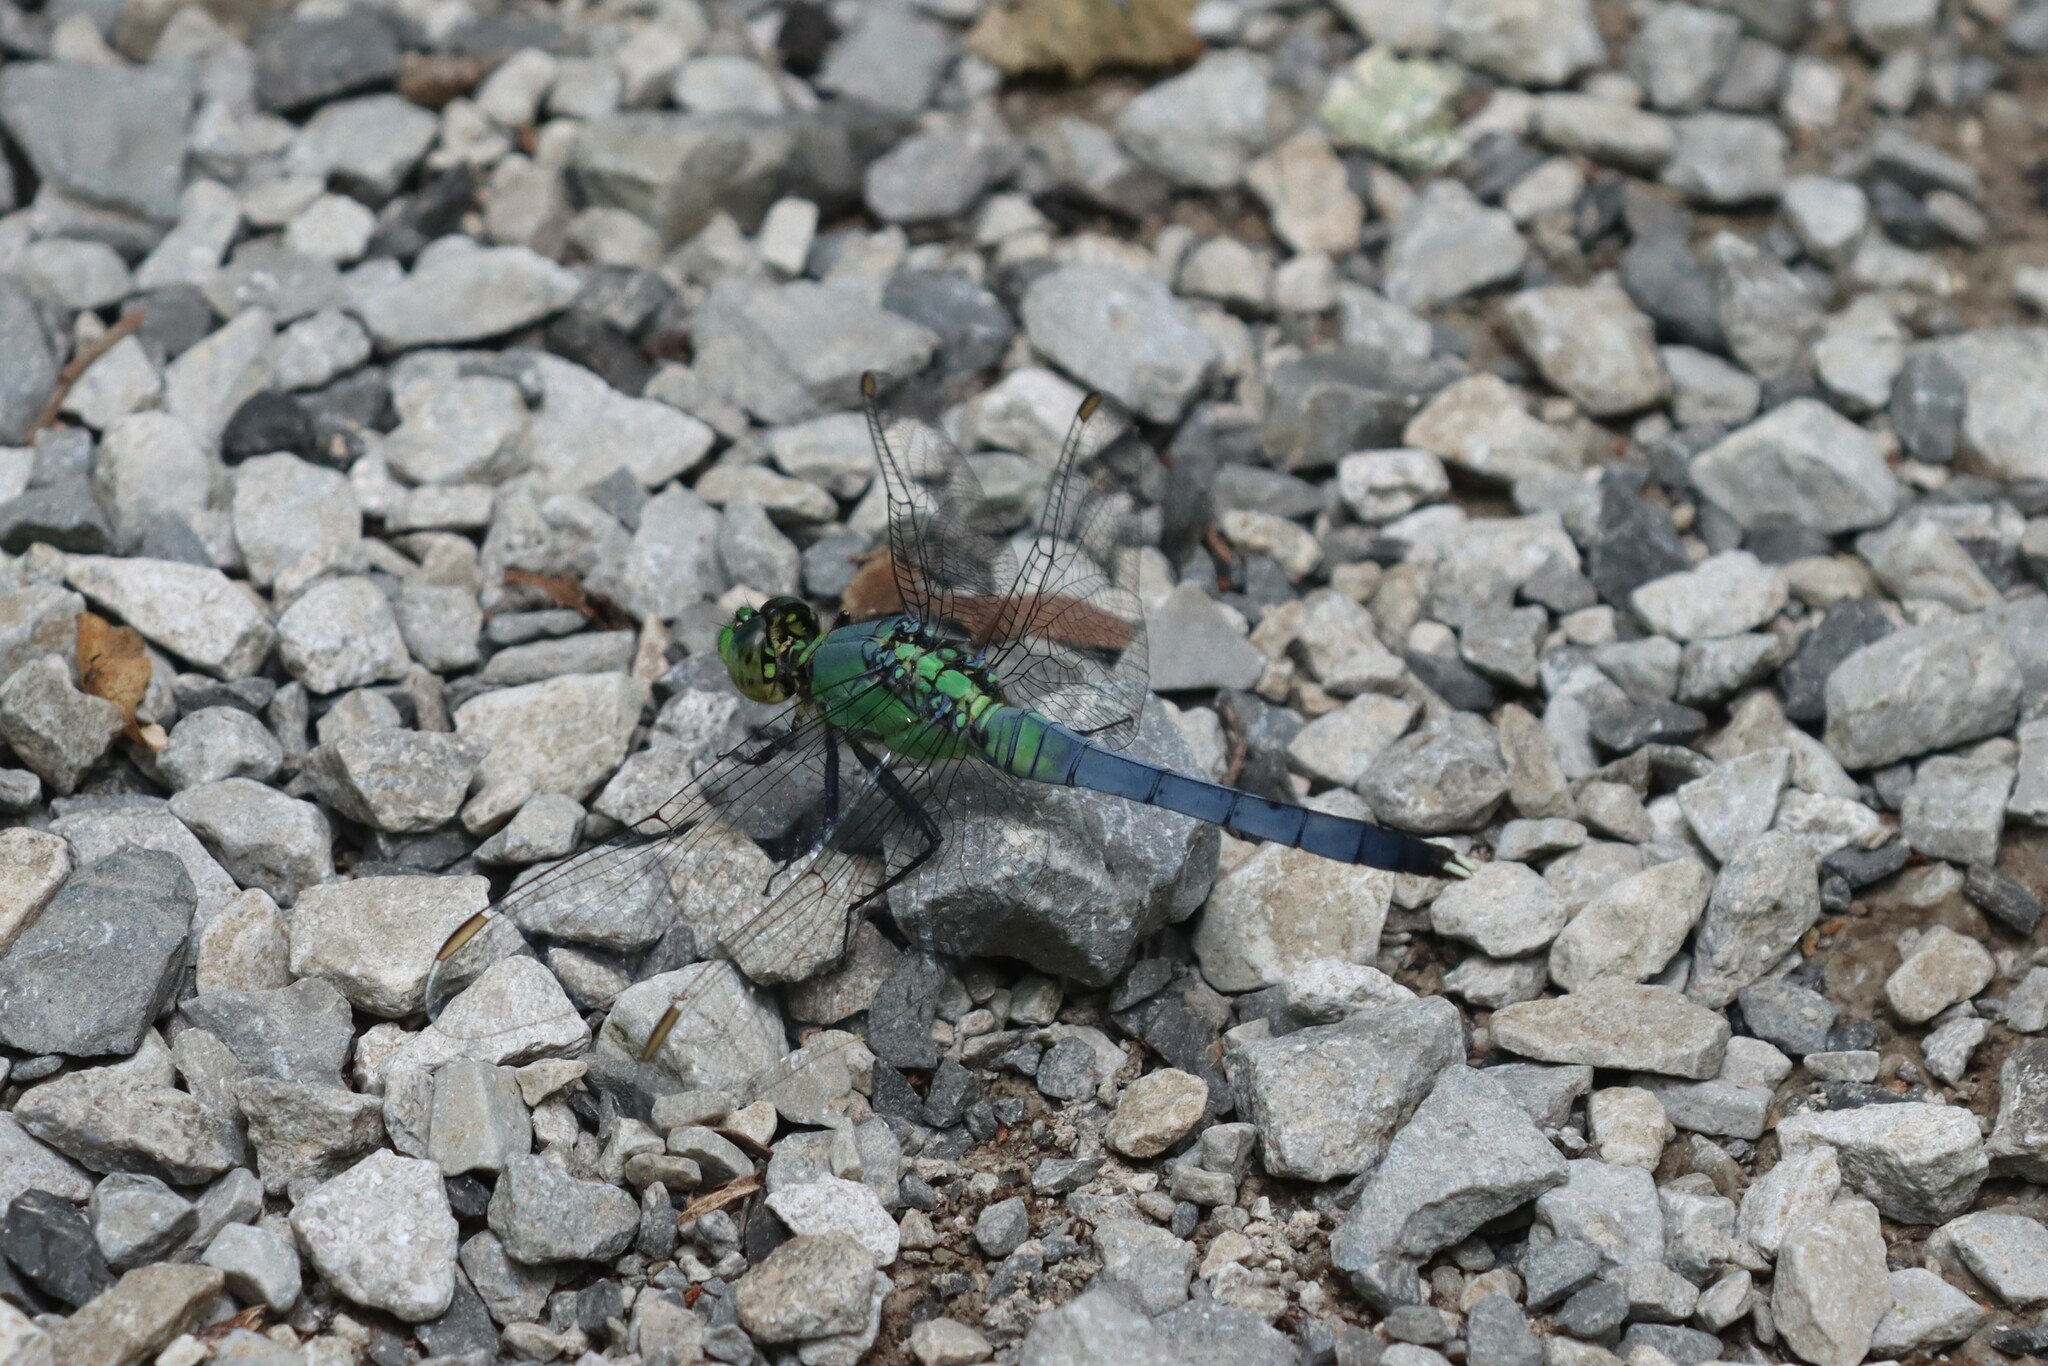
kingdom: Animalia
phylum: Arthropoda
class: Insecta
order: Odonata
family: Libellulidae
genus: Erythemis
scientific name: Erythemis simplicicollis
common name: Eastern pondhawk
